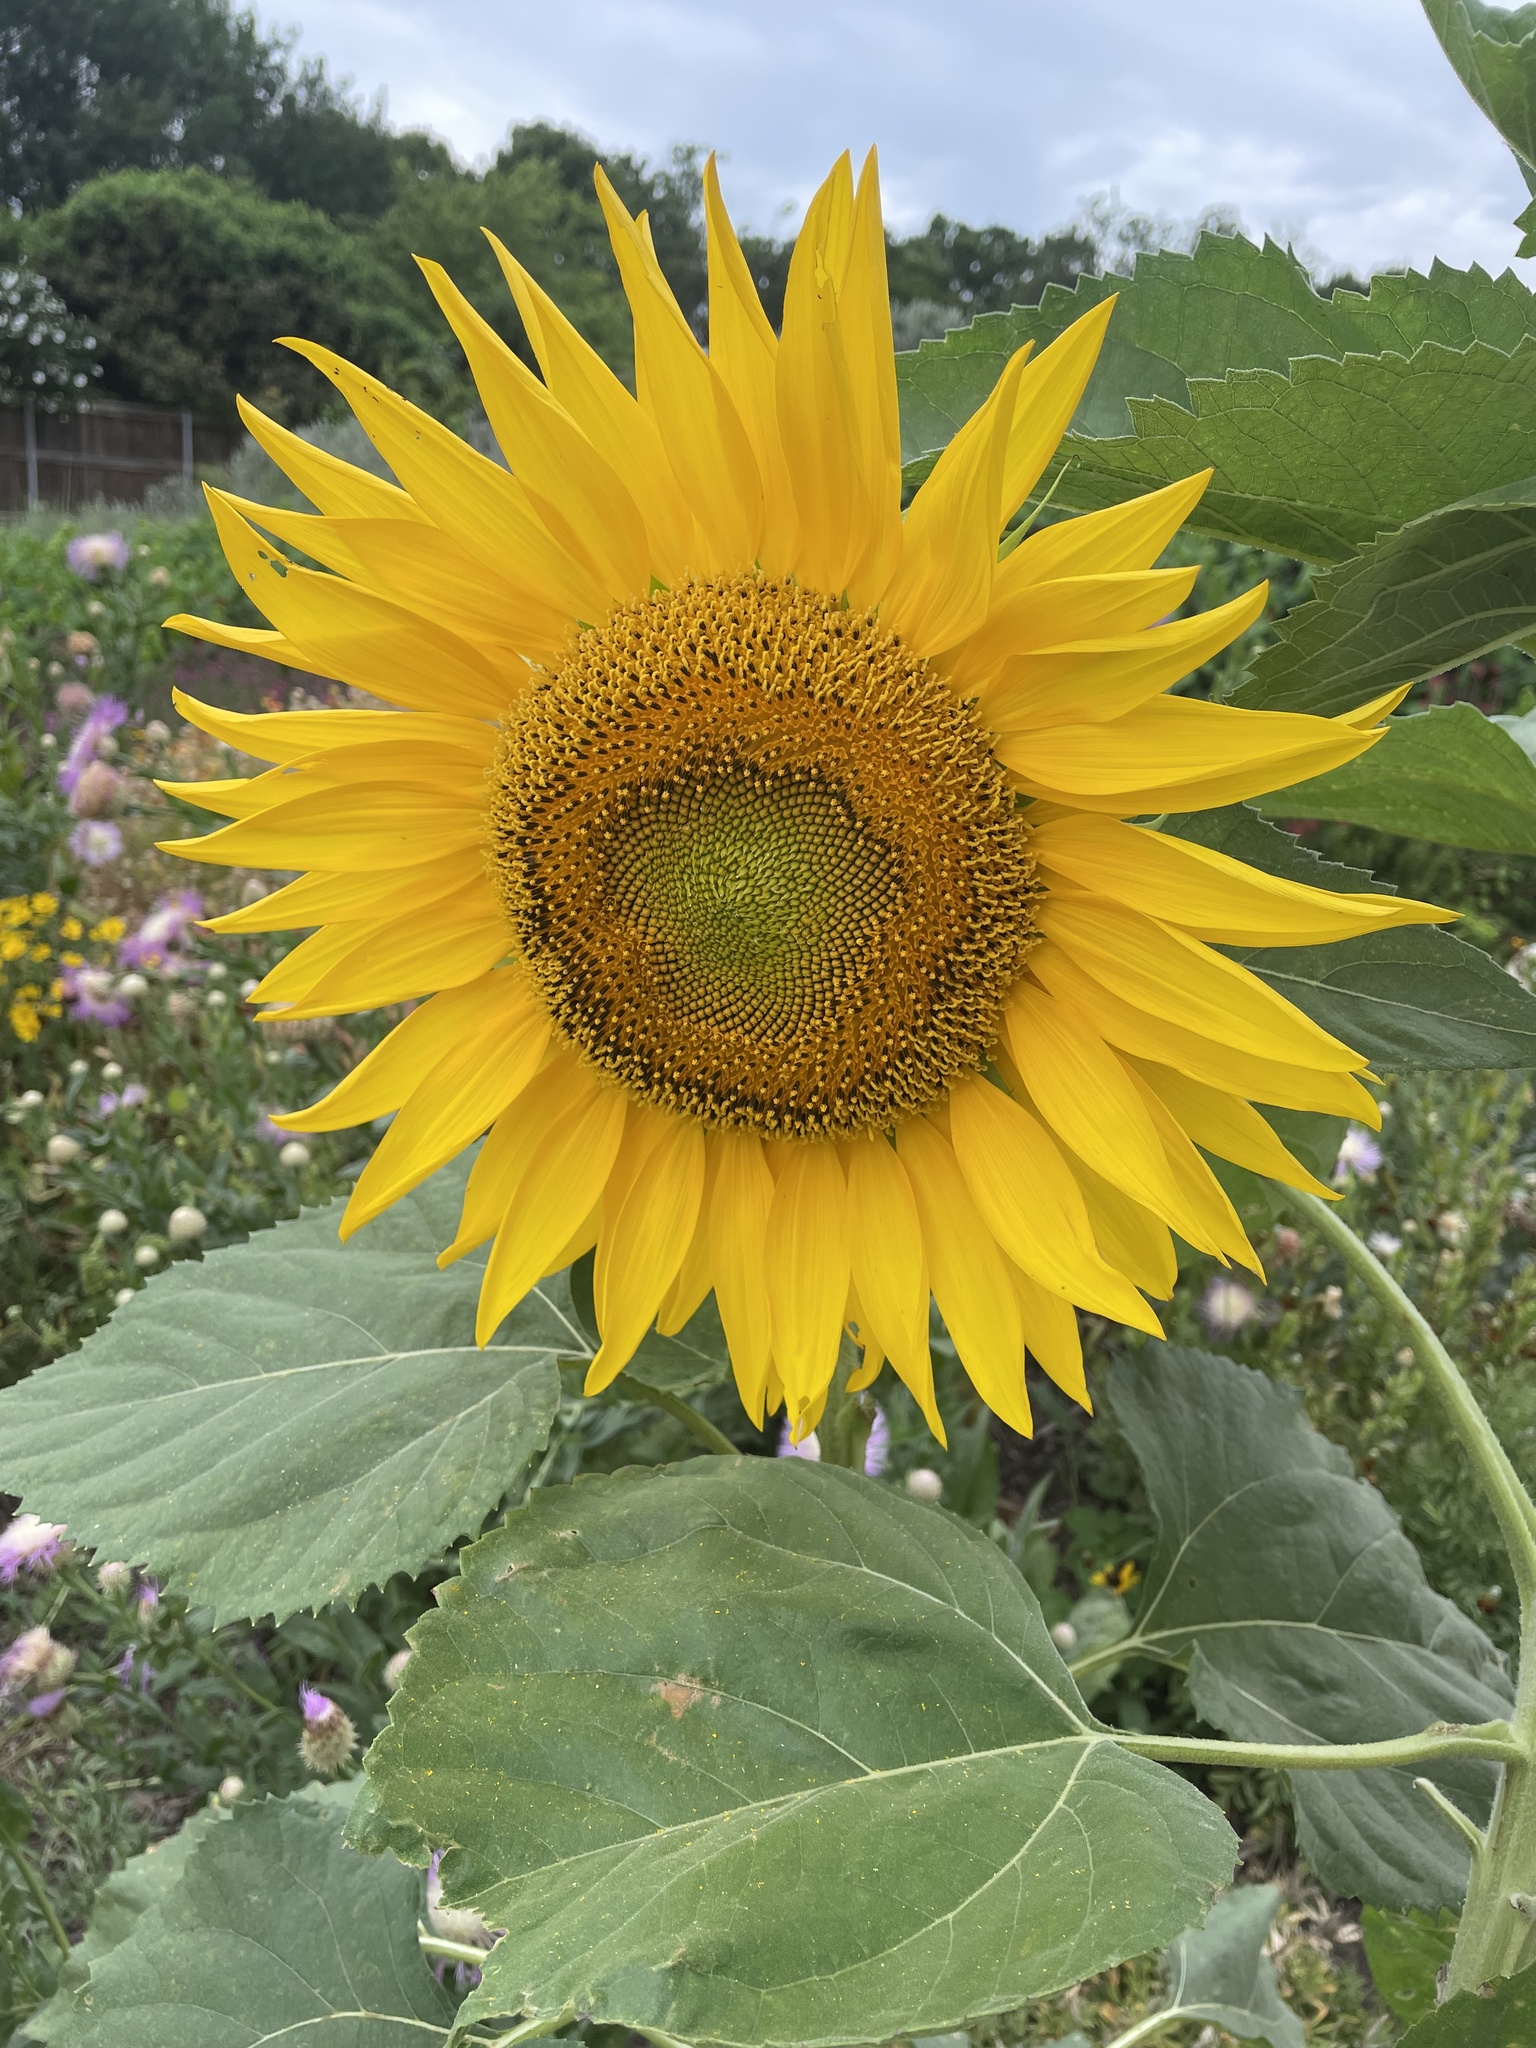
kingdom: Plantae
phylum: Tracheophyta
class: Magnoliopsida
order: Asterales
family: Asteraceae
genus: Helianthus
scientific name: Helianthus annuus
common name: Sunflower
